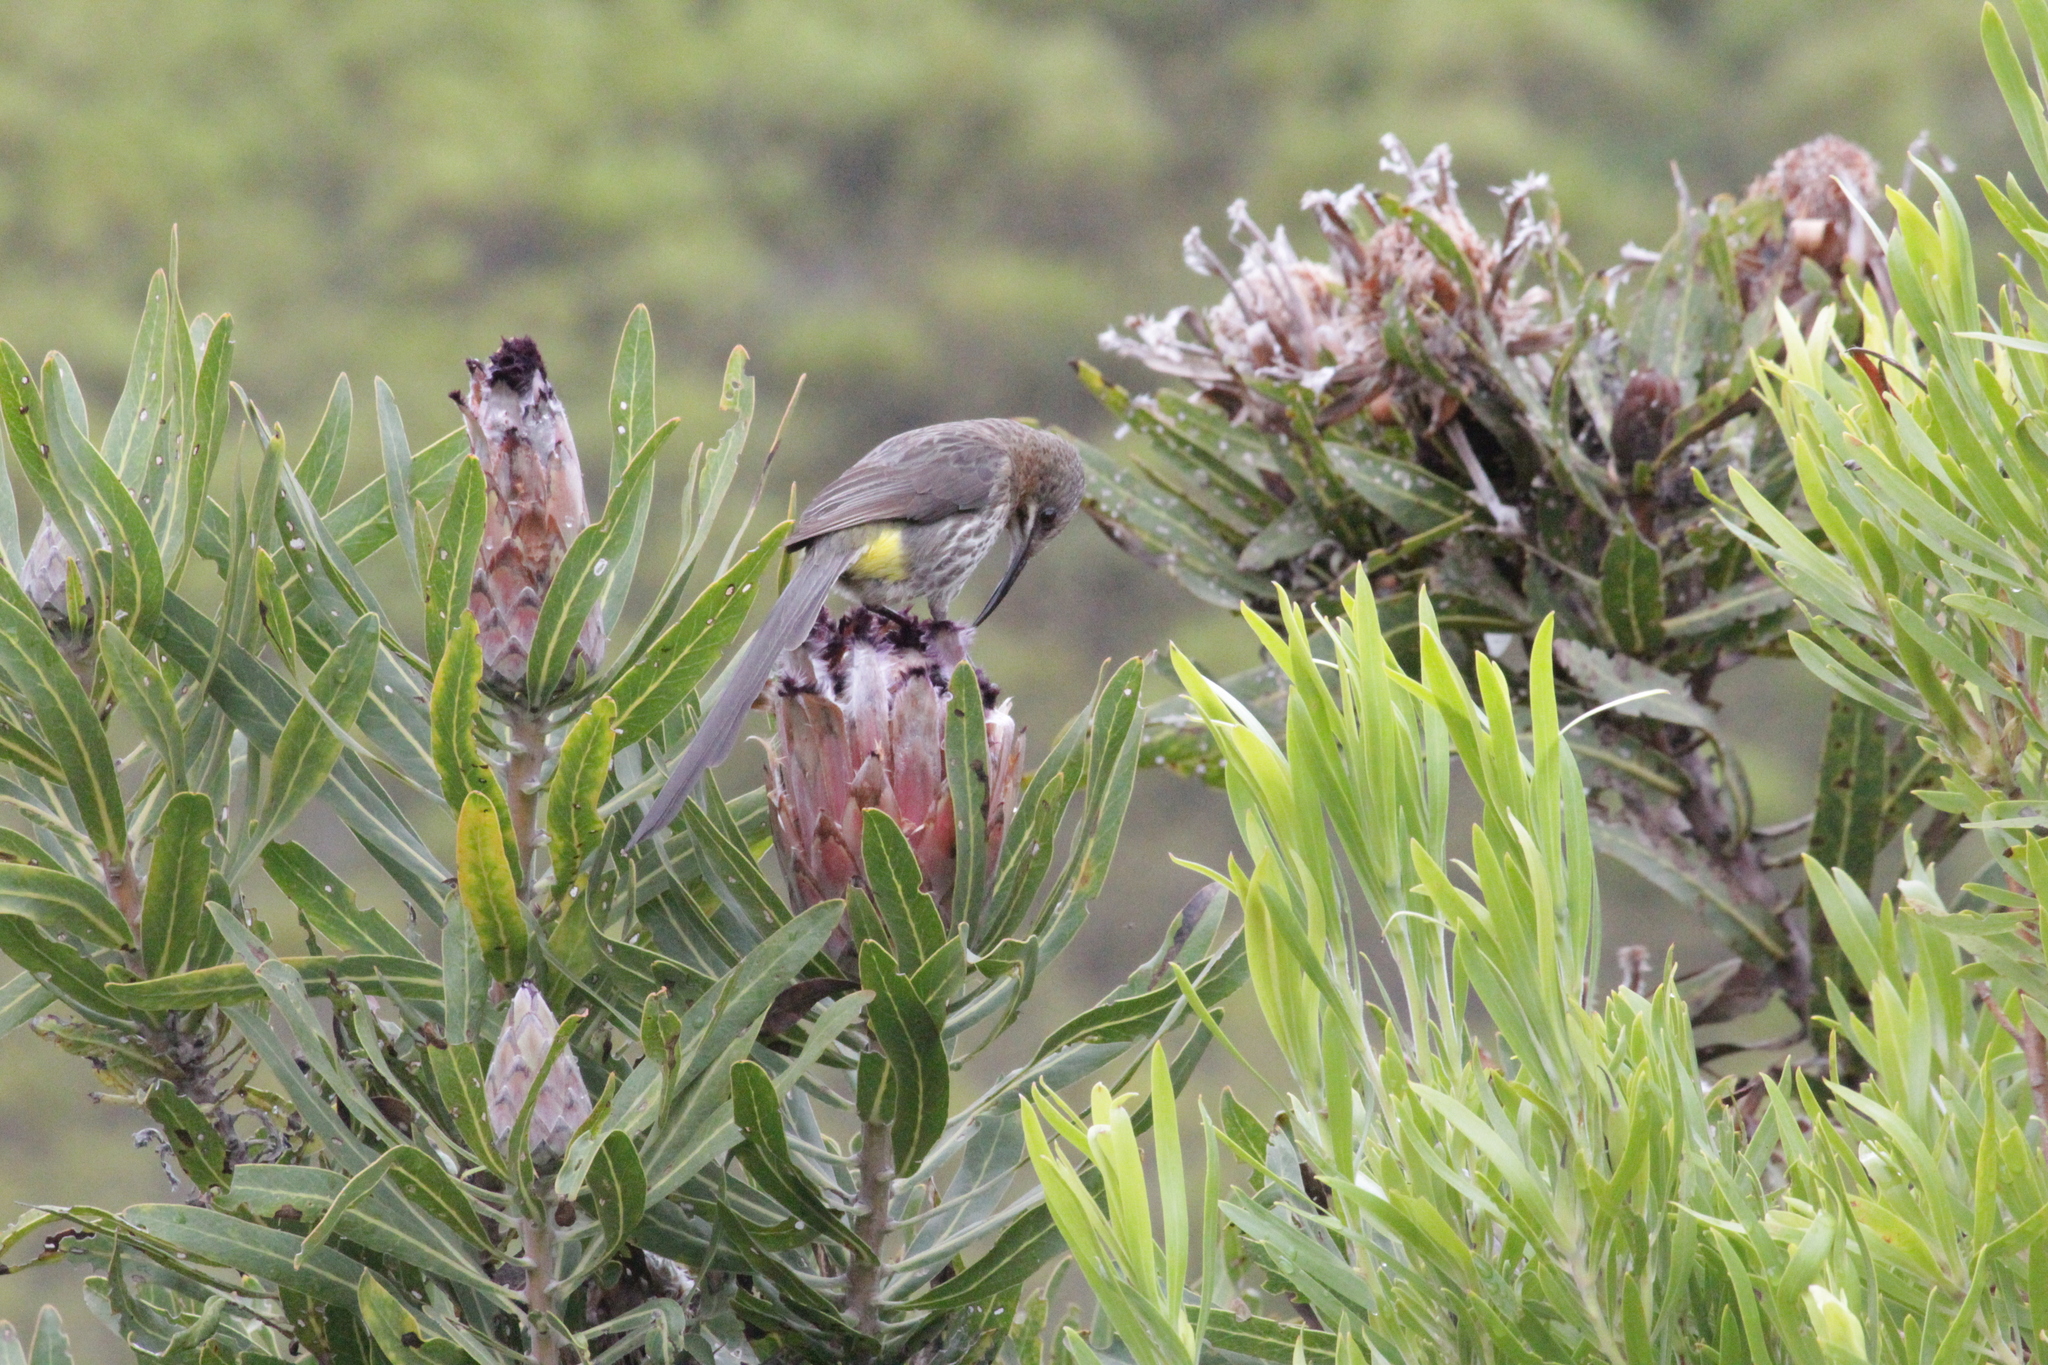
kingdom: Animalia
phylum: Chordata
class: Aves
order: Passeriformes
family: Promeropidae
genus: Promerops
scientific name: Promerops cafer
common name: Cape sugarbird
